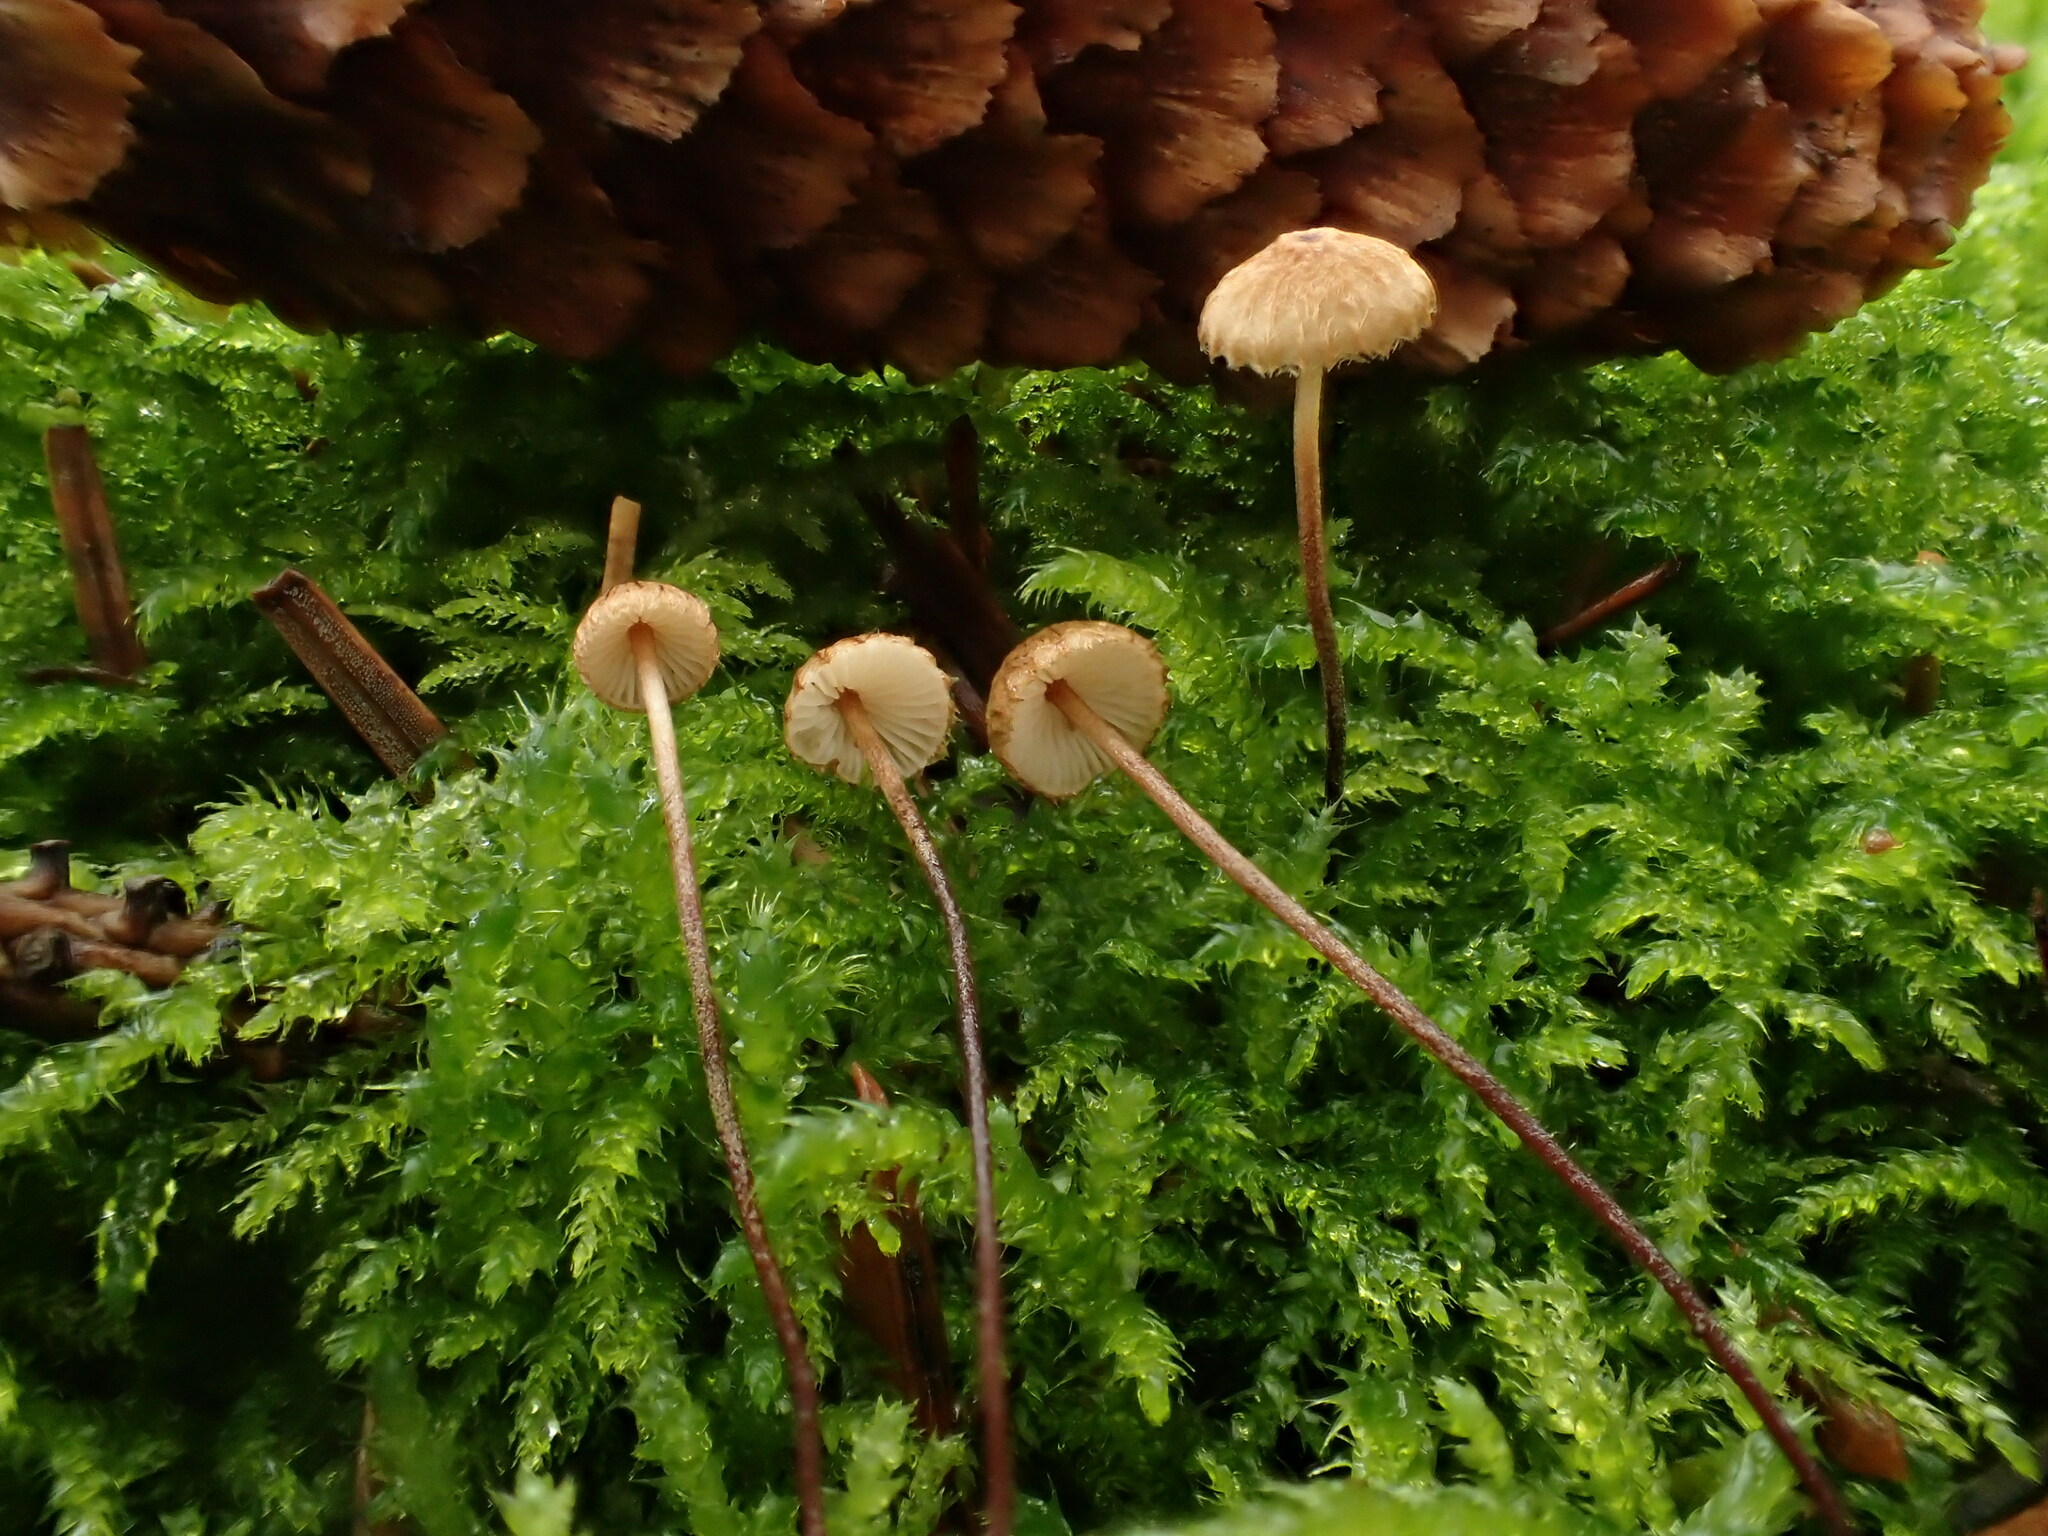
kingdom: Fungi
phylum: Basidiomycota
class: Agaricomycetes
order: Agaricales
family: Marasmiaceae
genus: Crinipellis
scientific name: Crinipellis piceae
